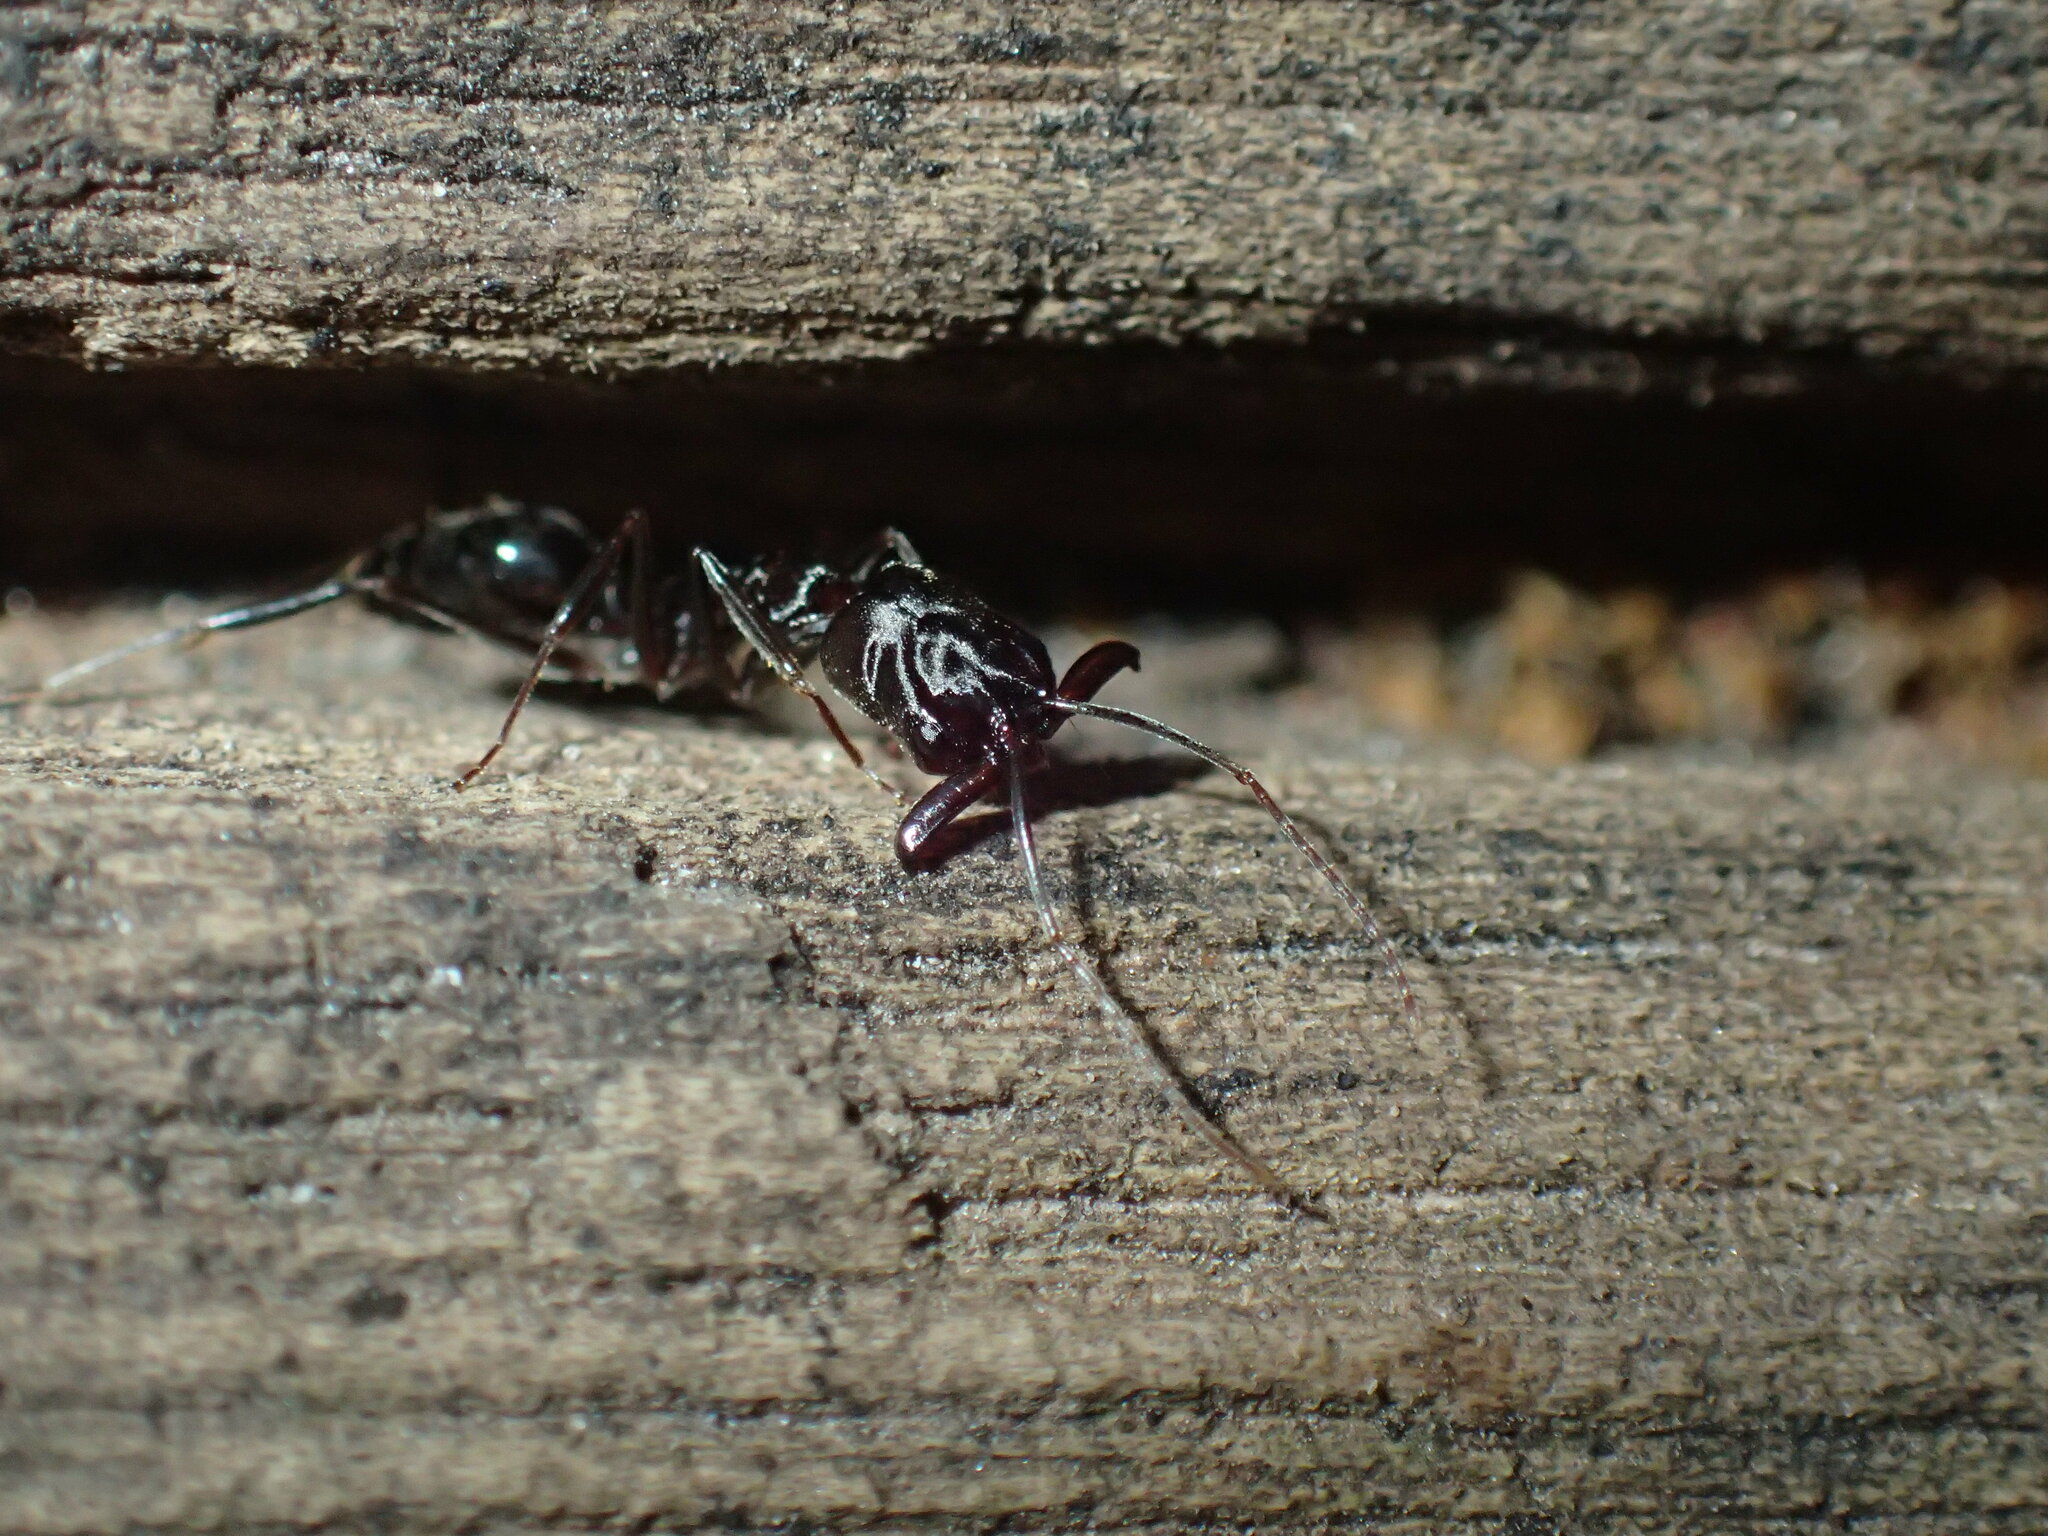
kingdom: Animalia
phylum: Arthropoda
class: Insecta
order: Hymenoptera
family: Formicidae
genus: Odontomachus
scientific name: Odontomachus troglodytes
